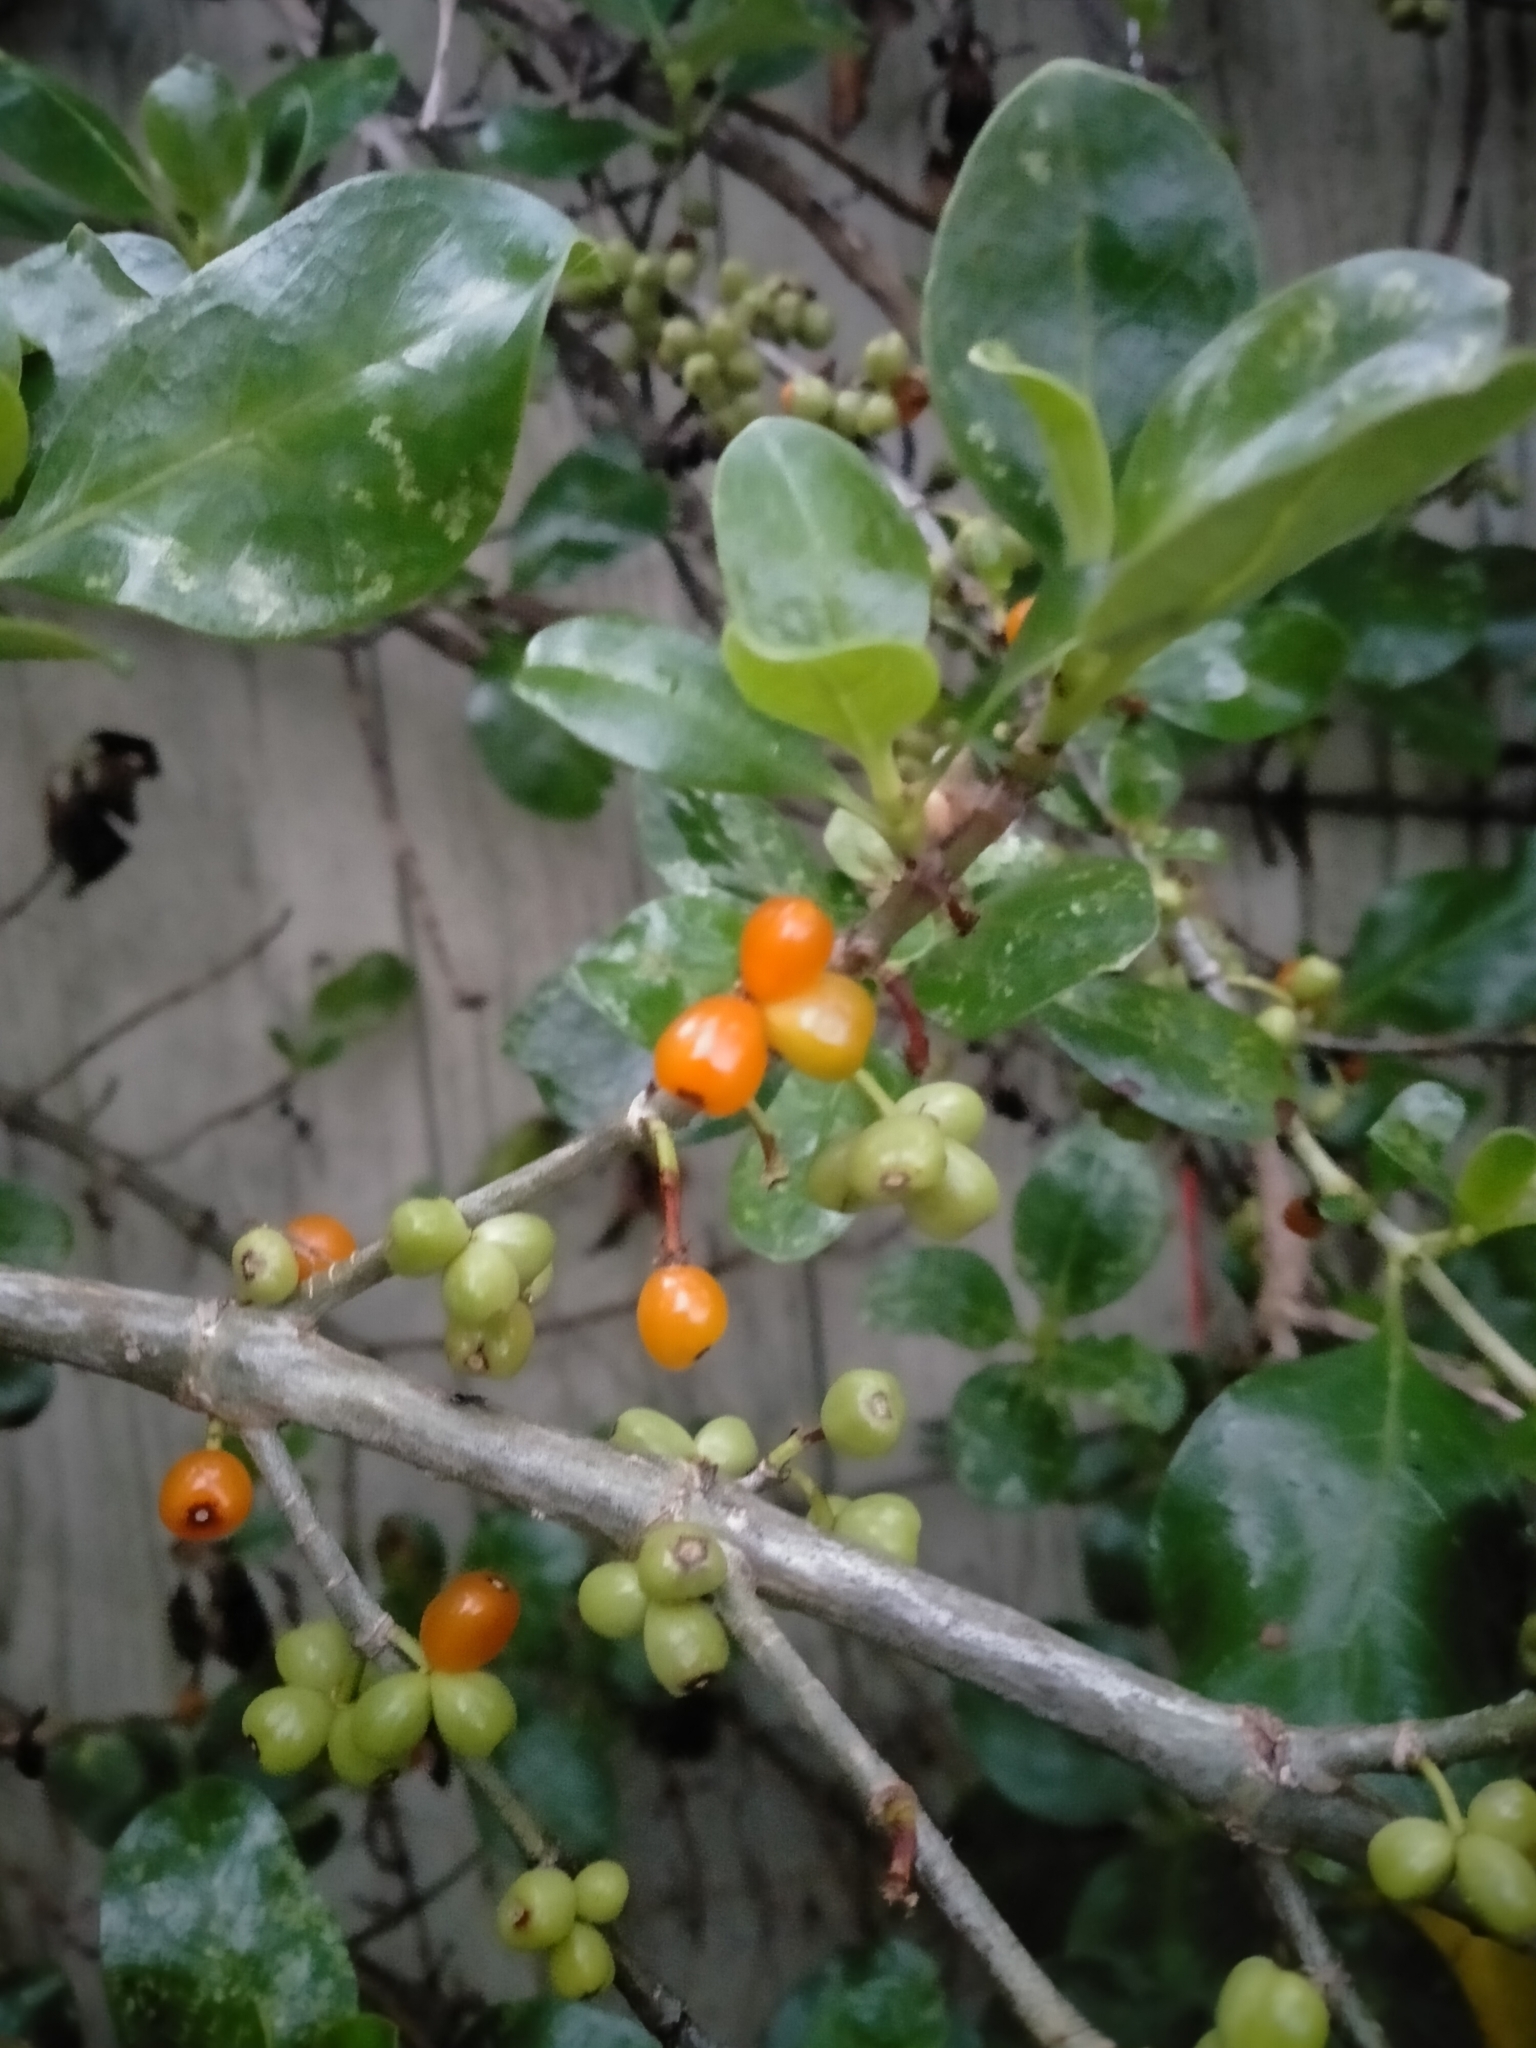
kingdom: Plantae
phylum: Tracheophyta
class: Magnoliopsida
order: Gentianales
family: Rubiaceae
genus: Coprosma
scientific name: Coprosma repens
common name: Tree bedstraw
